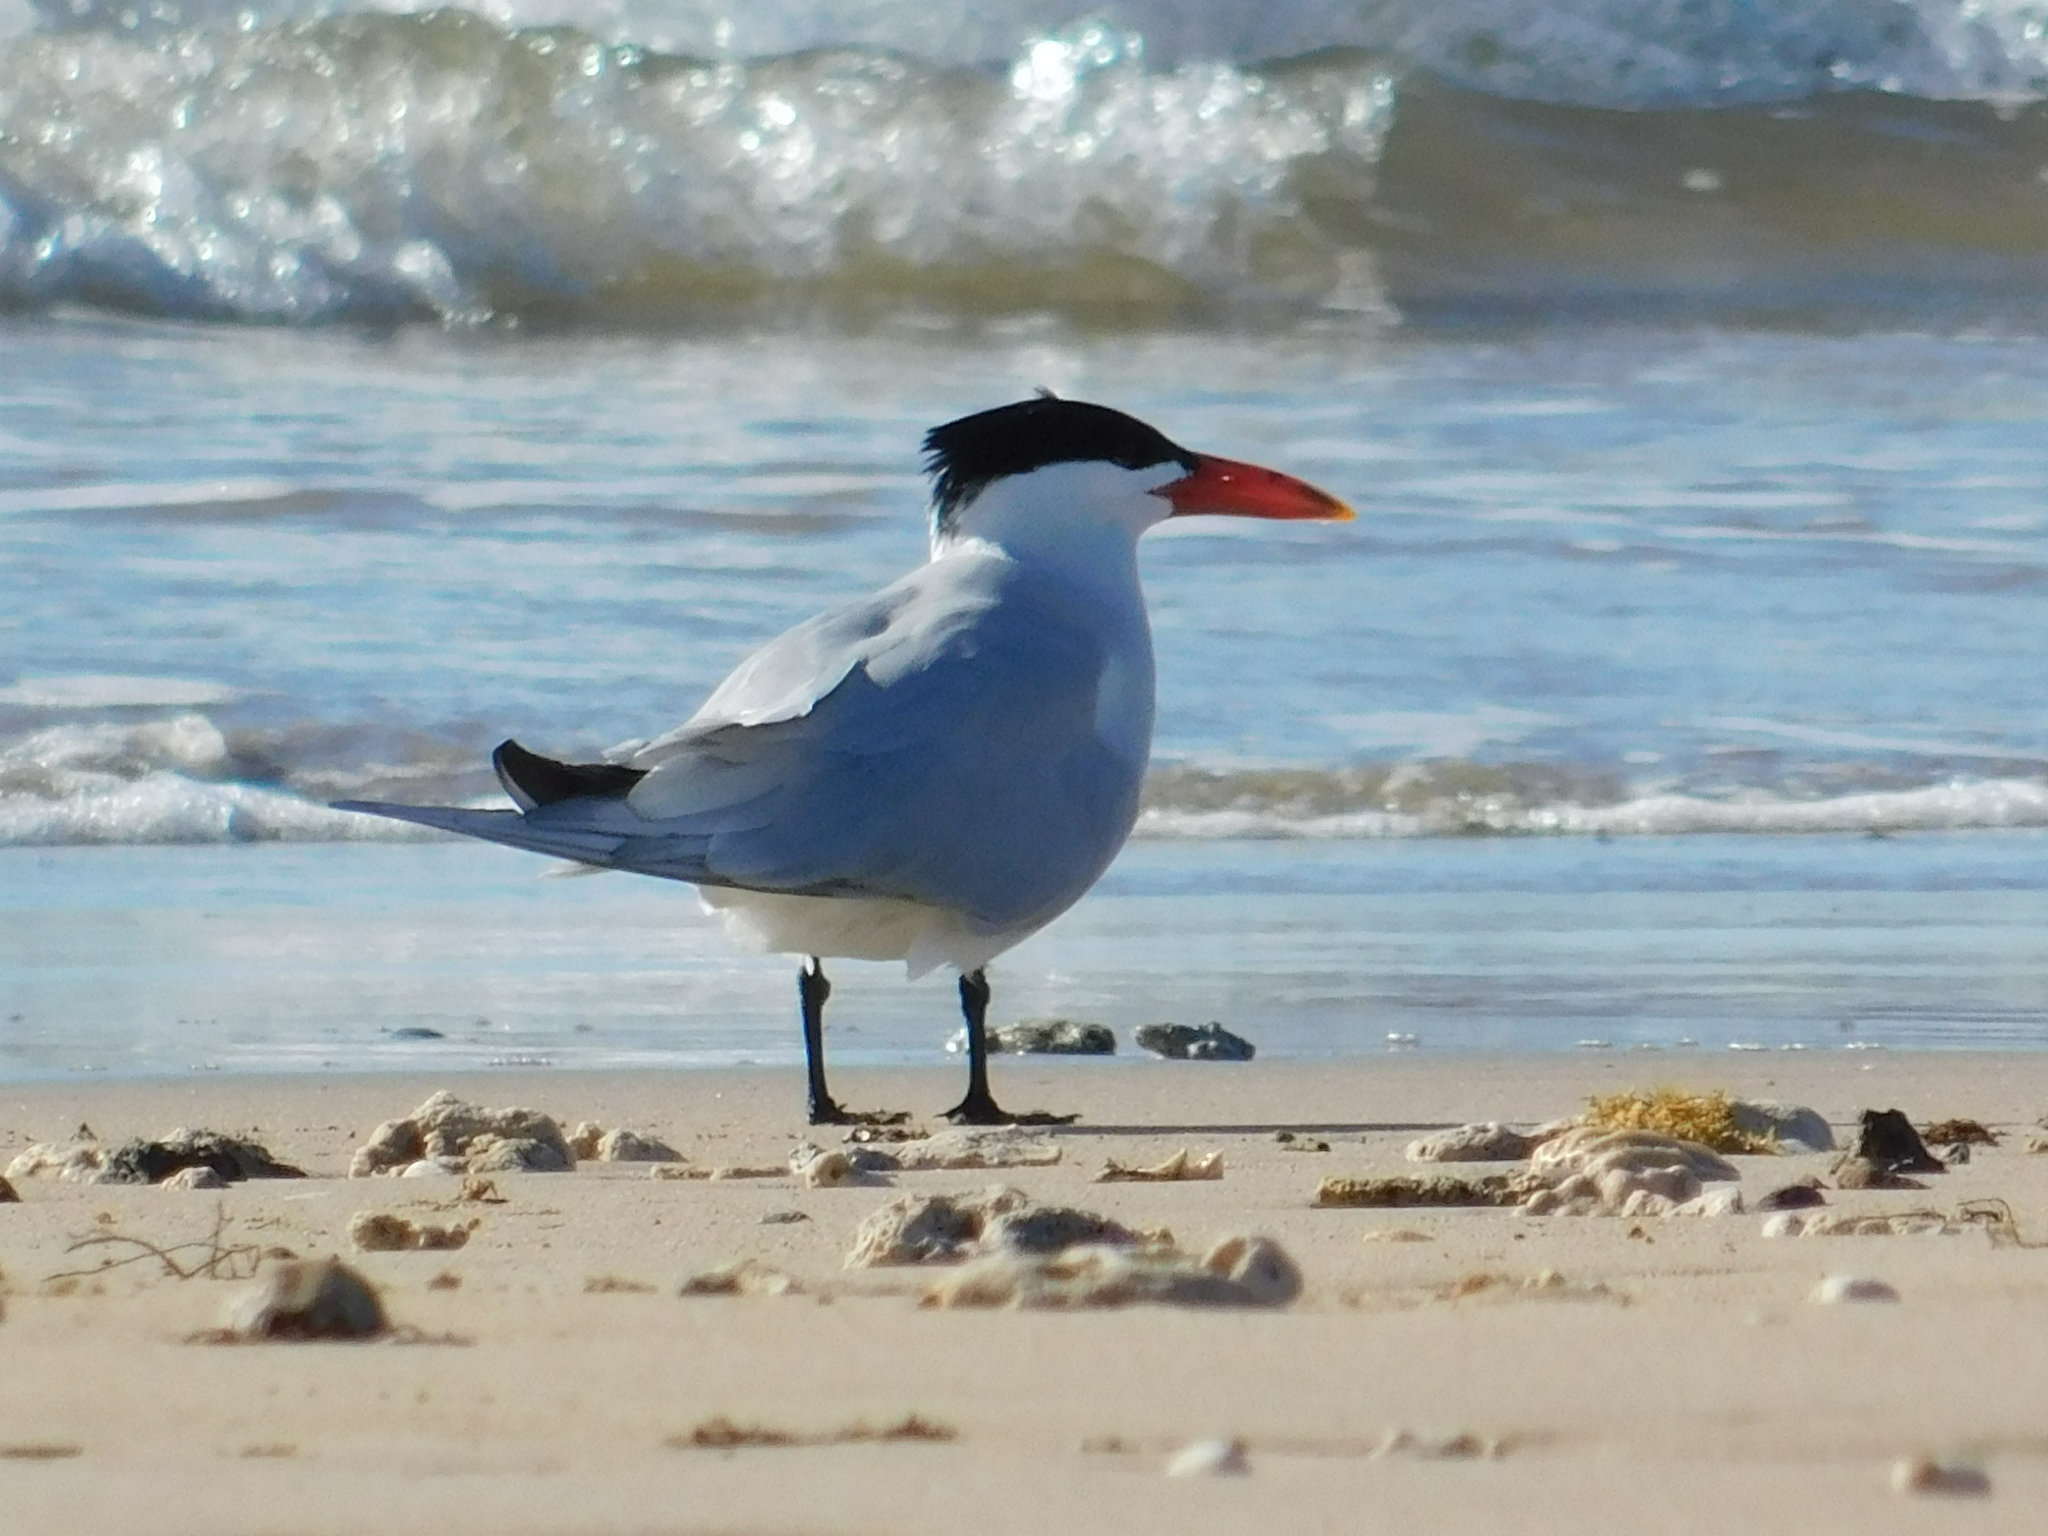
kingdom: Animalia
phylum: Chordata
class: Aves
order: Charadriiformes
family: Laridae
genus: Hydroprogne
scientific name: Hydroprogne caspia
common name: Caspian tern
